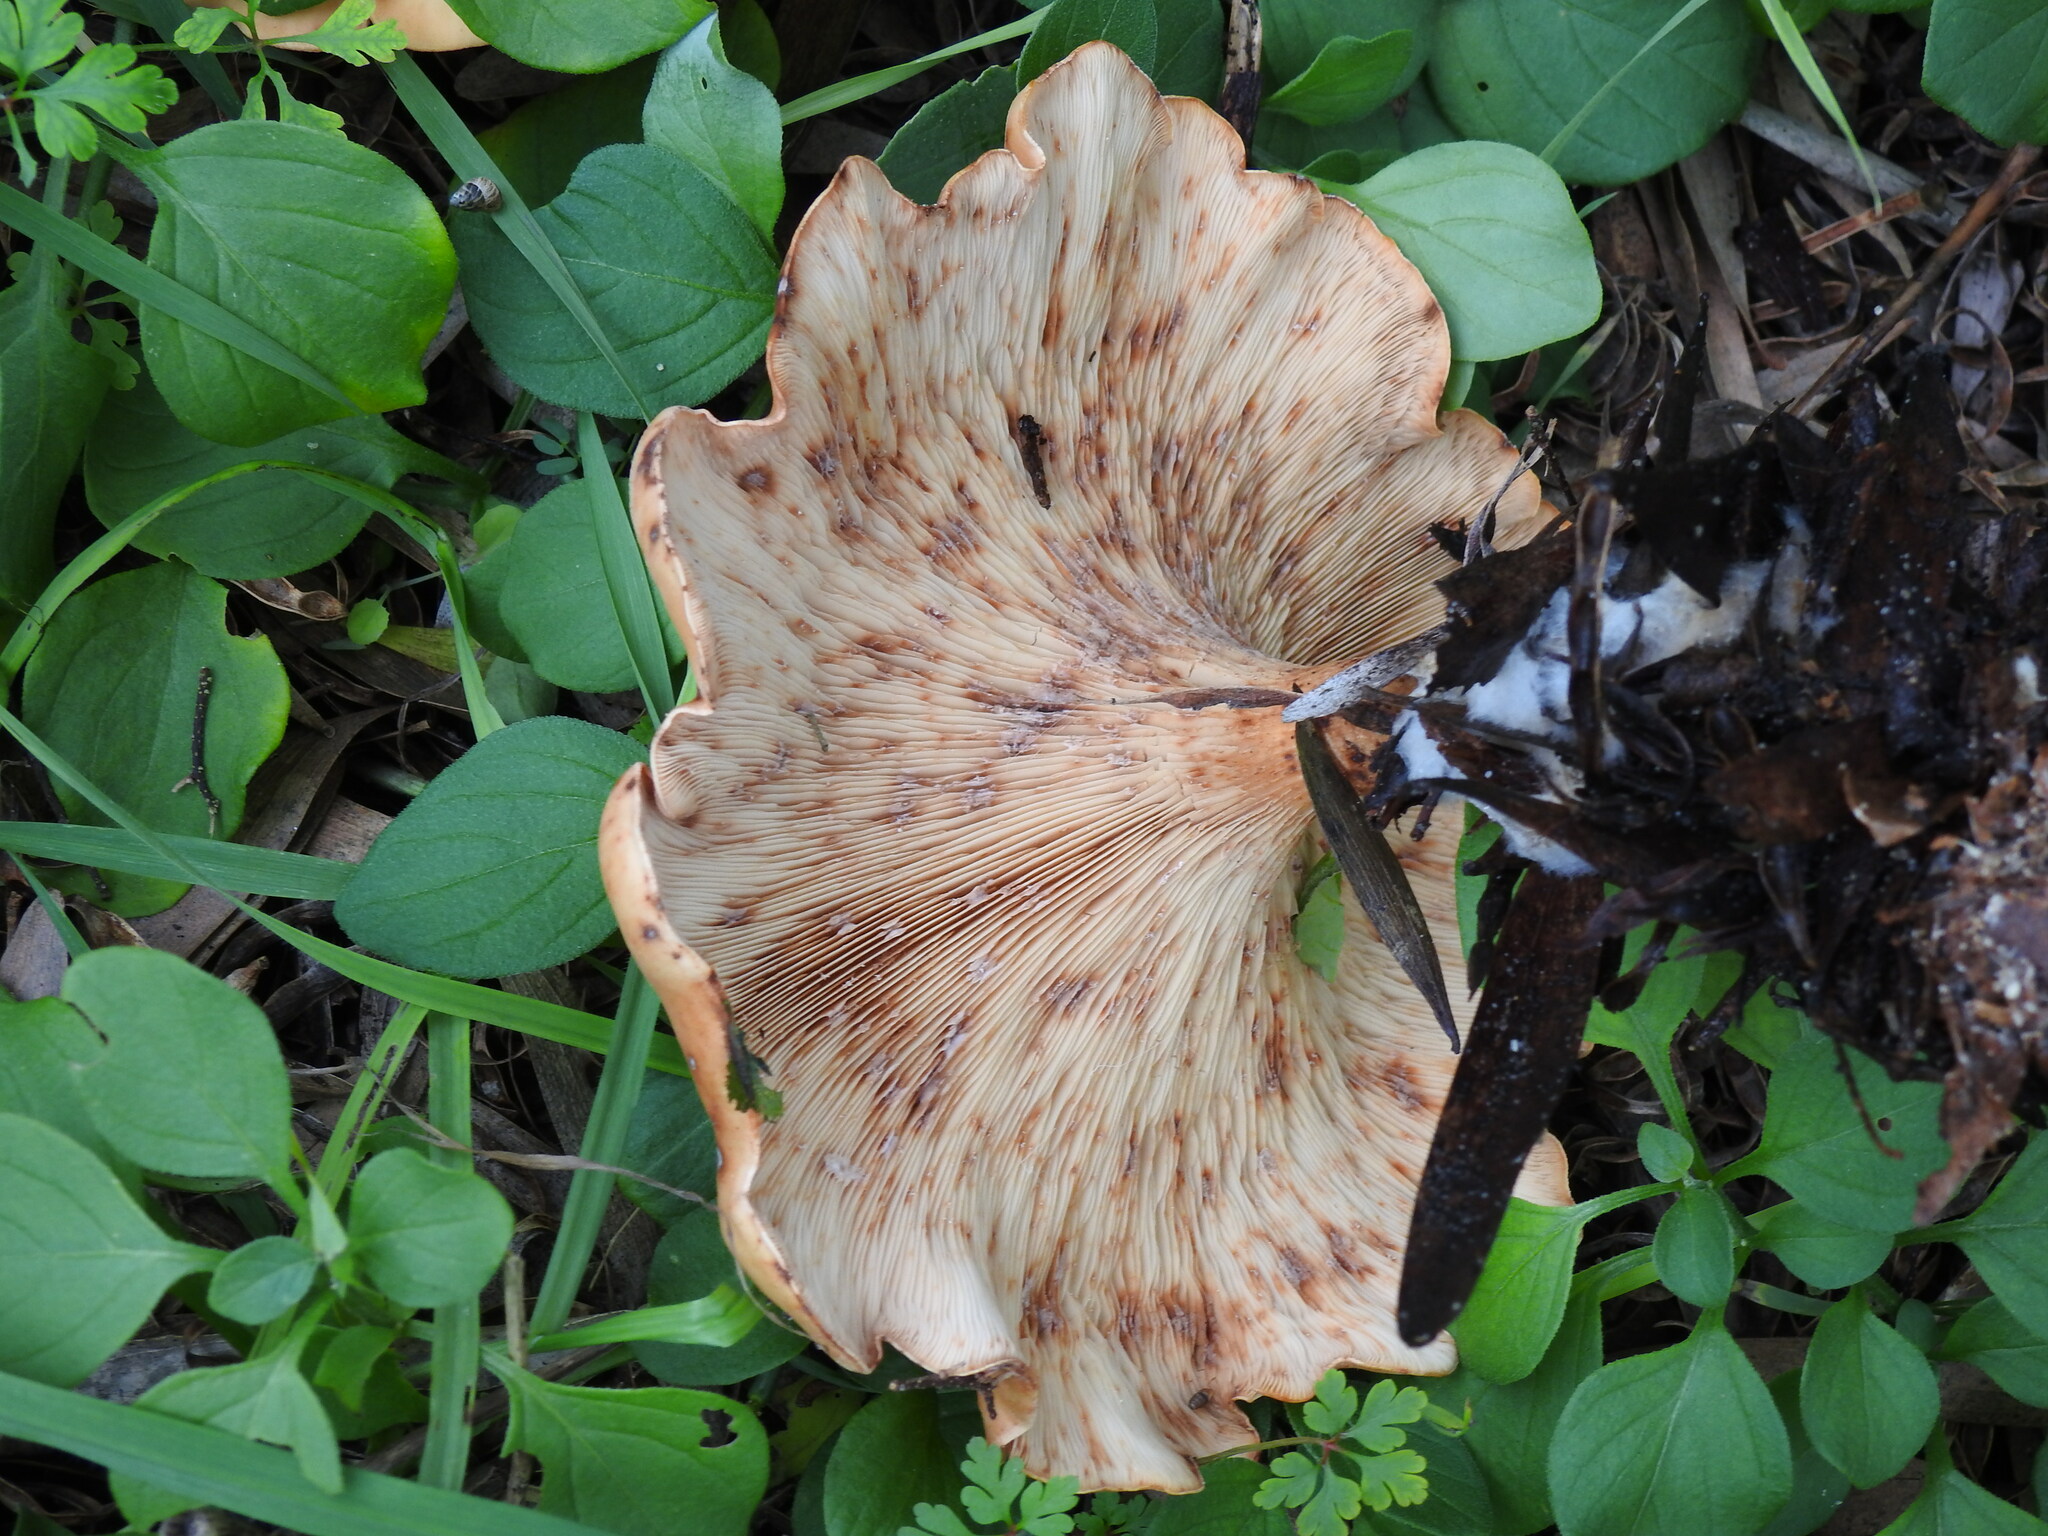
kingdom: Fungi
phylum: Basidiomycota
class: Agaricomycetes
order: Agaricales
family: Tricholomataceae
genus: Paralepista
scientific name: Paralepista flaccida
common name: Tawny funnel cap
